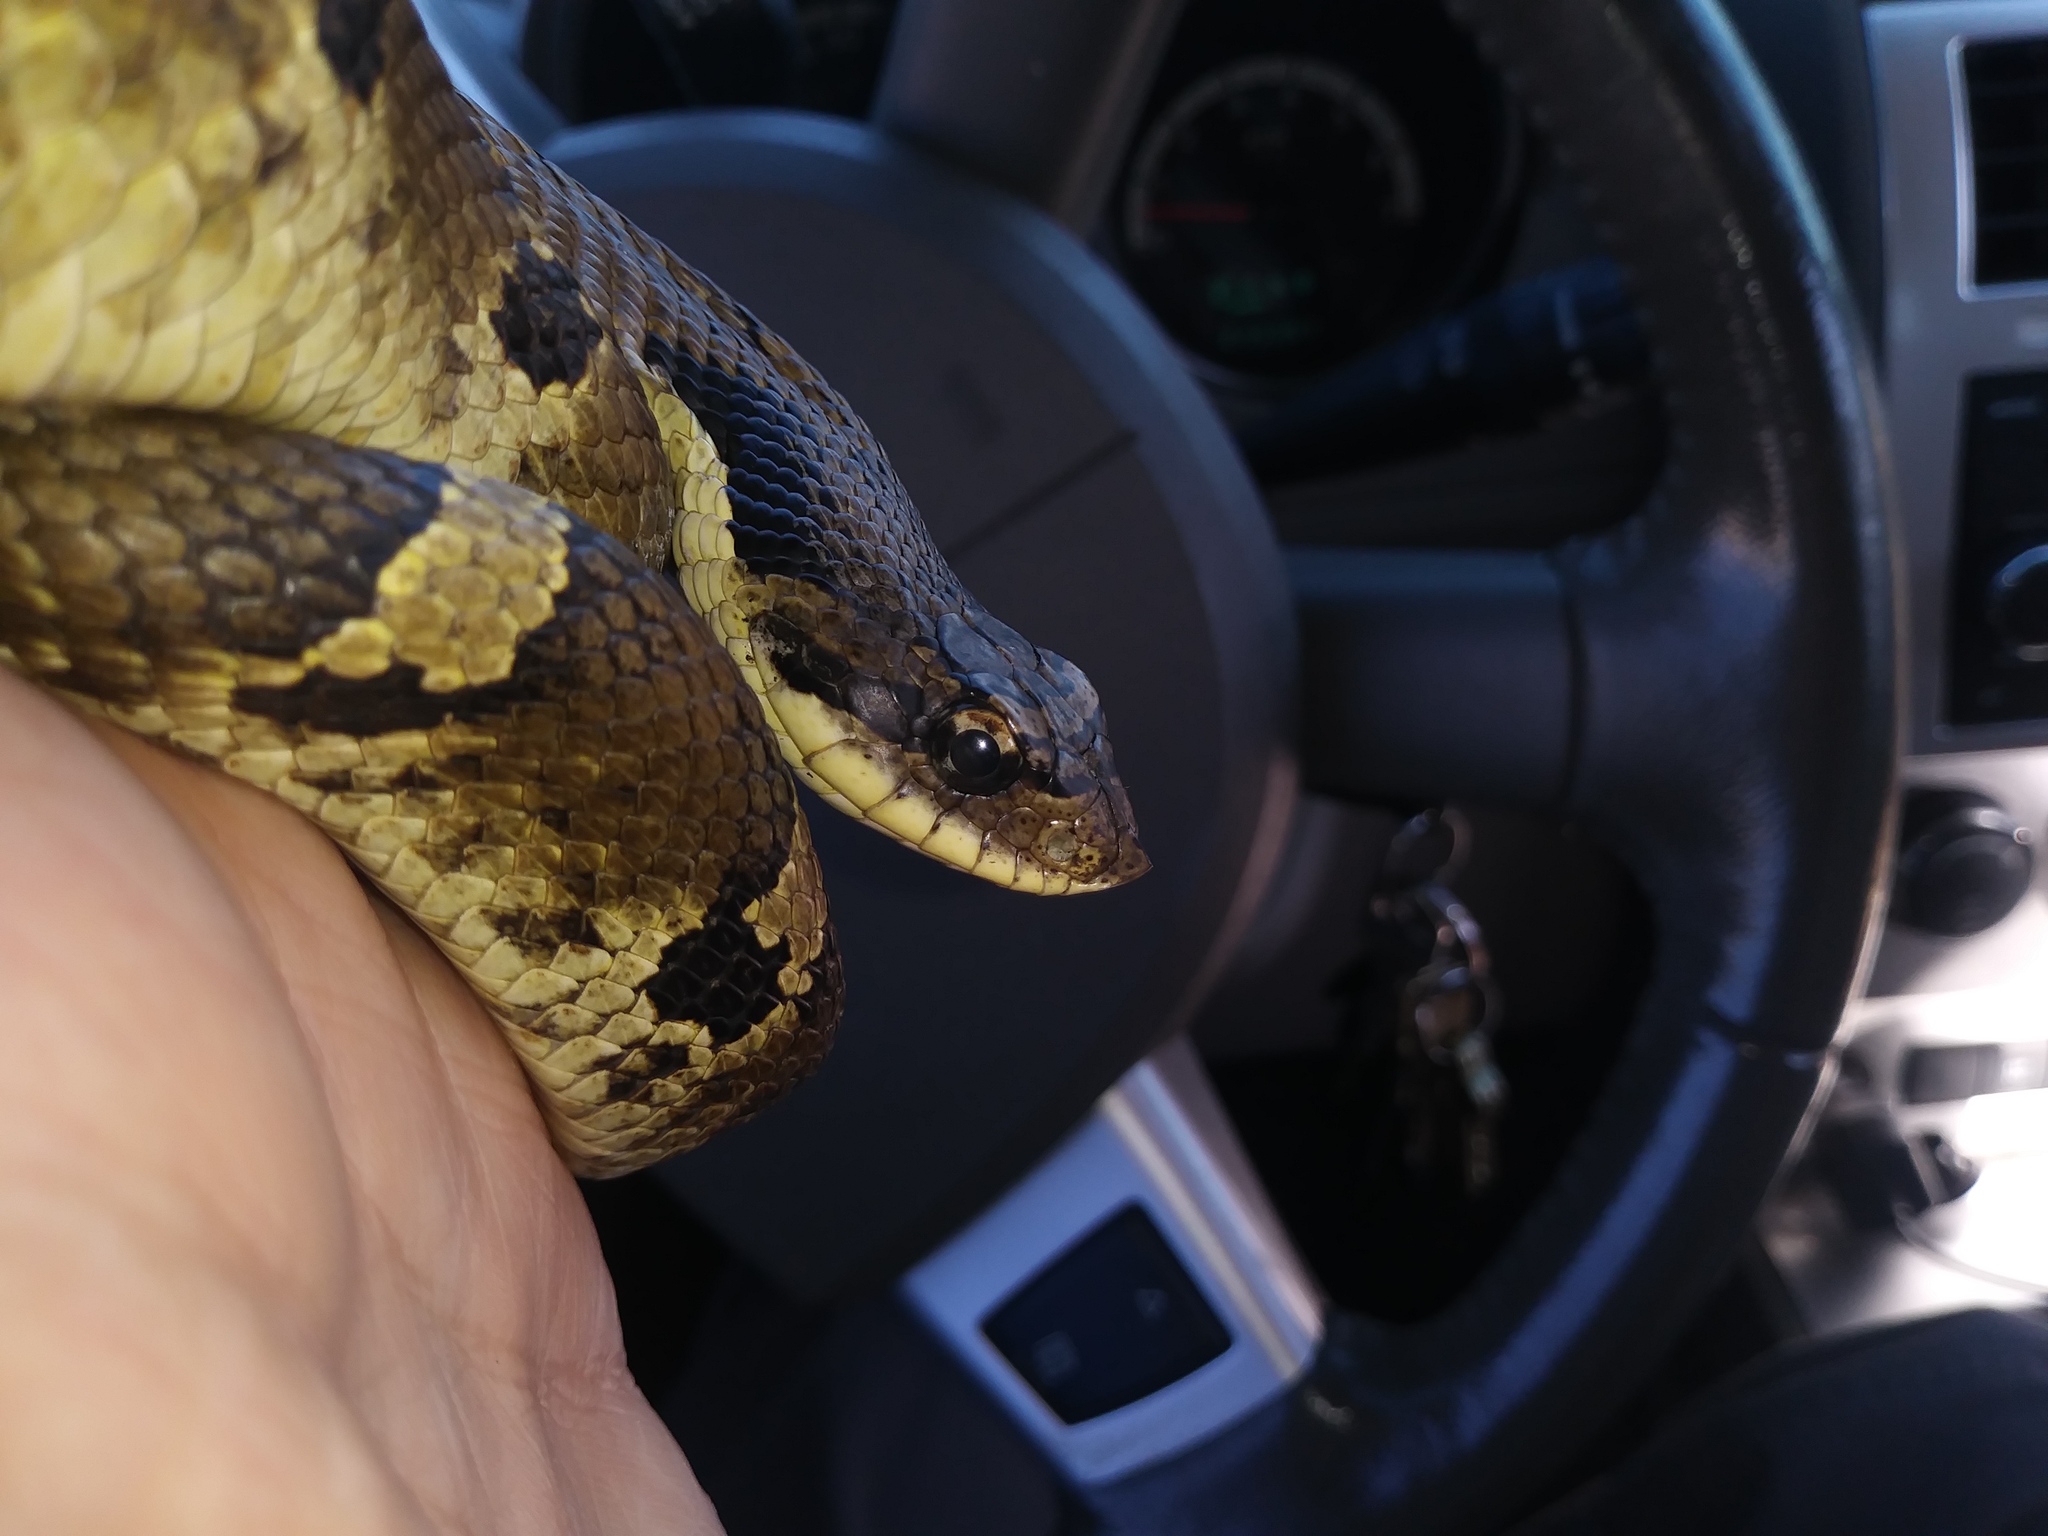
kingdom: Animalia
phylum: Chordata
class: Squamata
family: Colubridae
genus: Heterodon
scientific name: Heterodon platirhinos
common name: Eastern hognose snake
